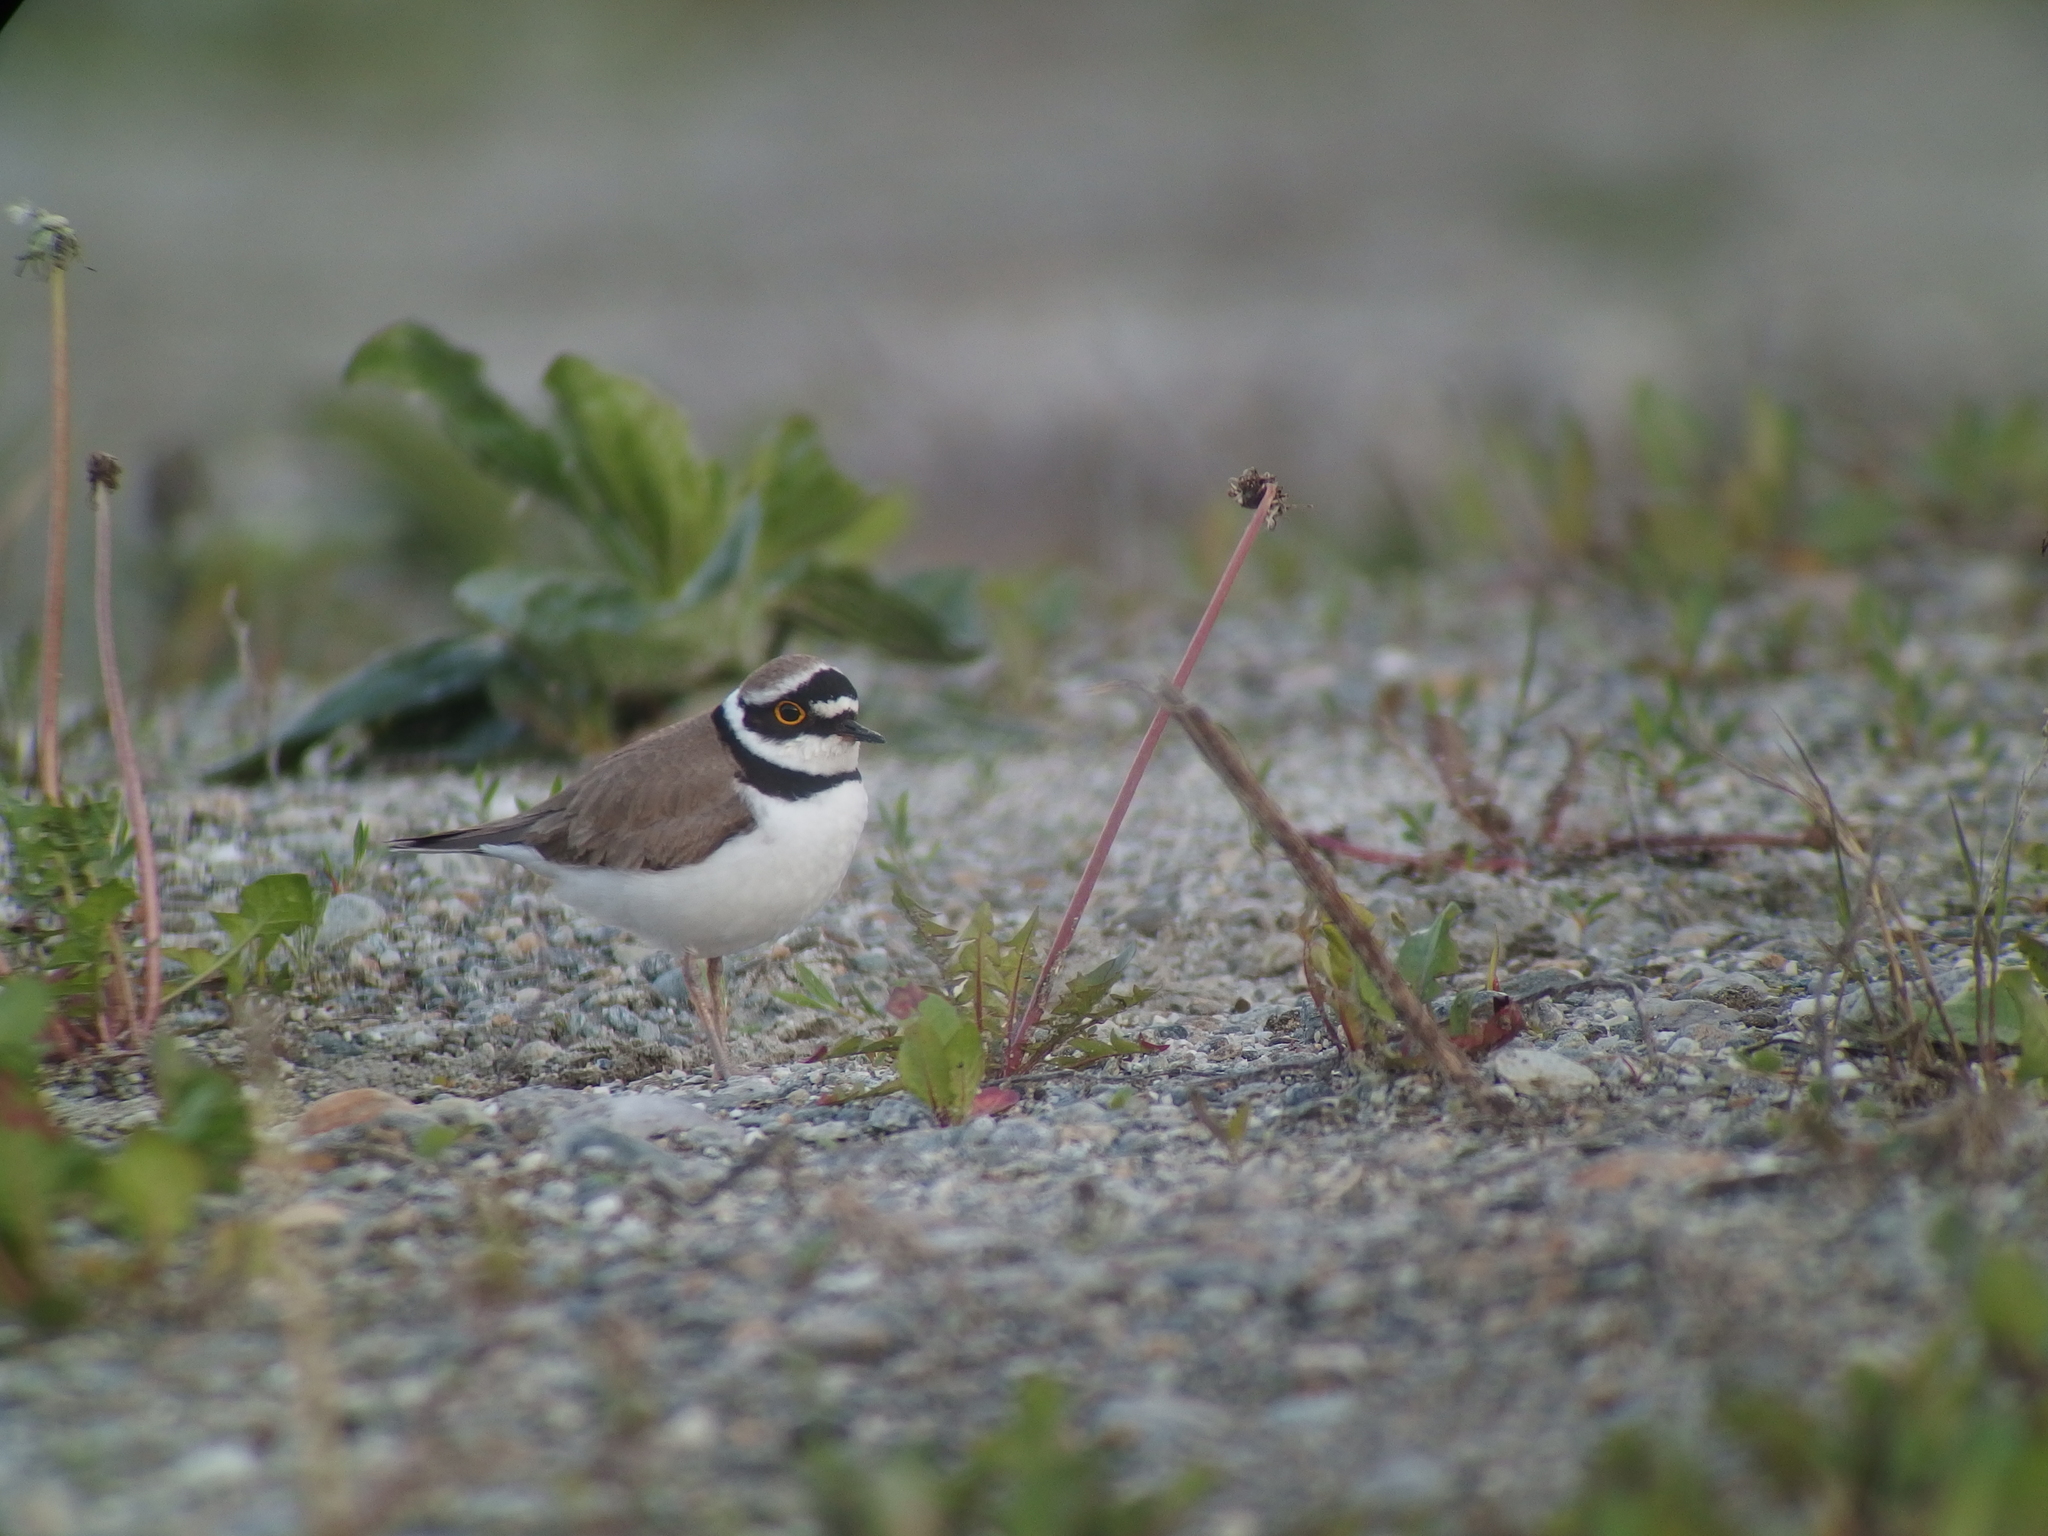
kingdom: Animalia
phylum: Chordata
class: Aves
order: Charadriiformes
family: Charadriidae
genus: Charadrius
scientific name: Charadrius dubius
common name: Little ringed plover
